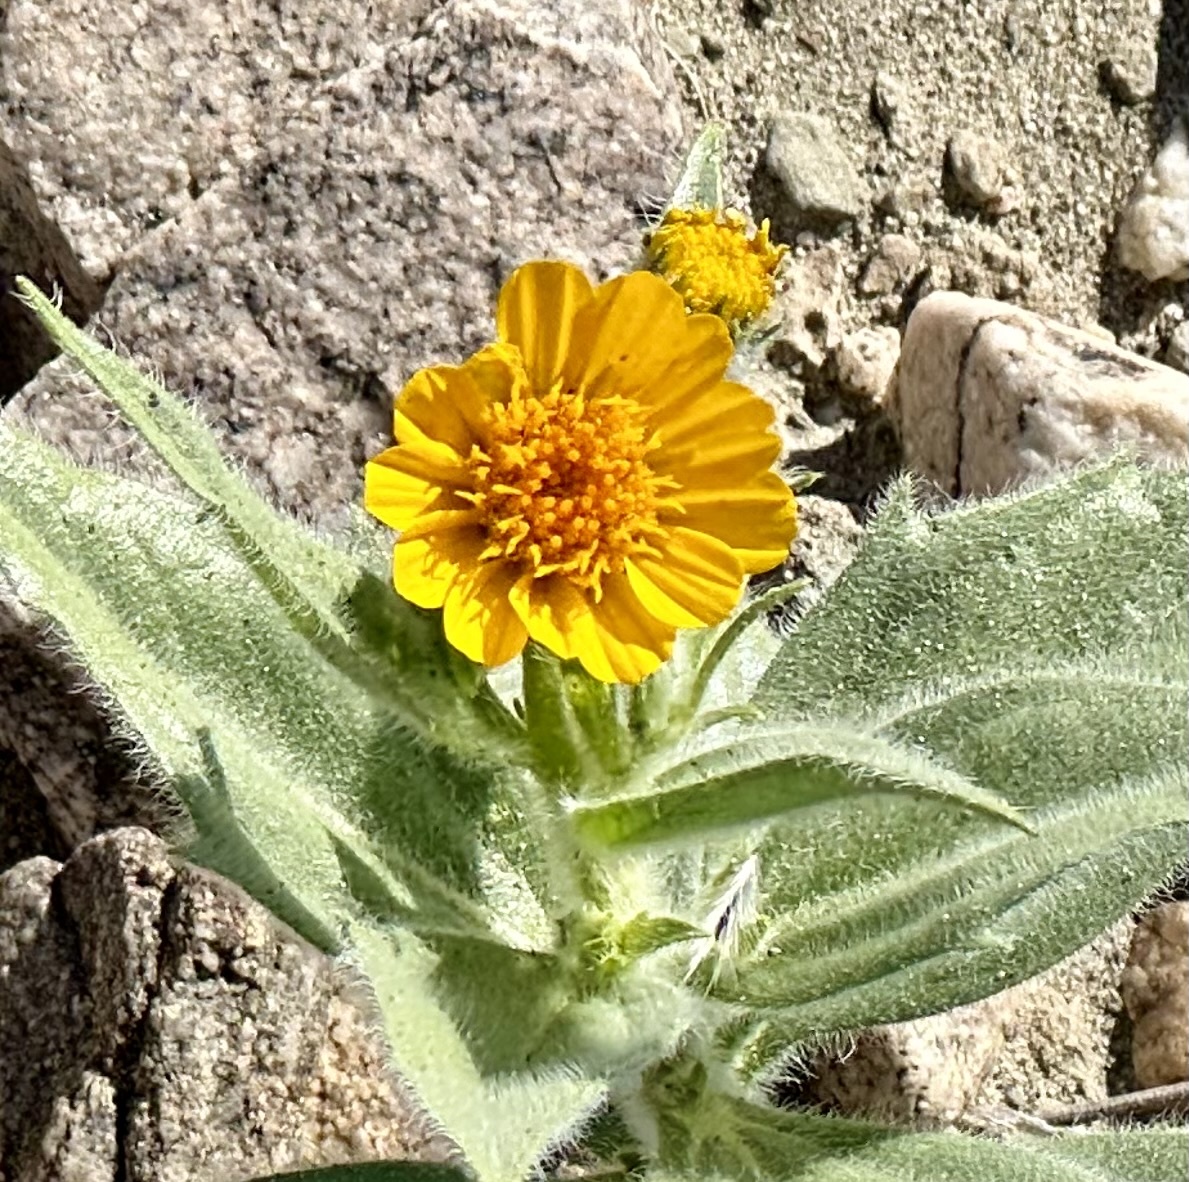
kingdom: Plantae
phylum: Tracheophyta
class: Magnoliopsida
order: Asterales
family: Asteraceae
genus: Geraea
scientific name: Geraea canescens
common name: Desert-gold
